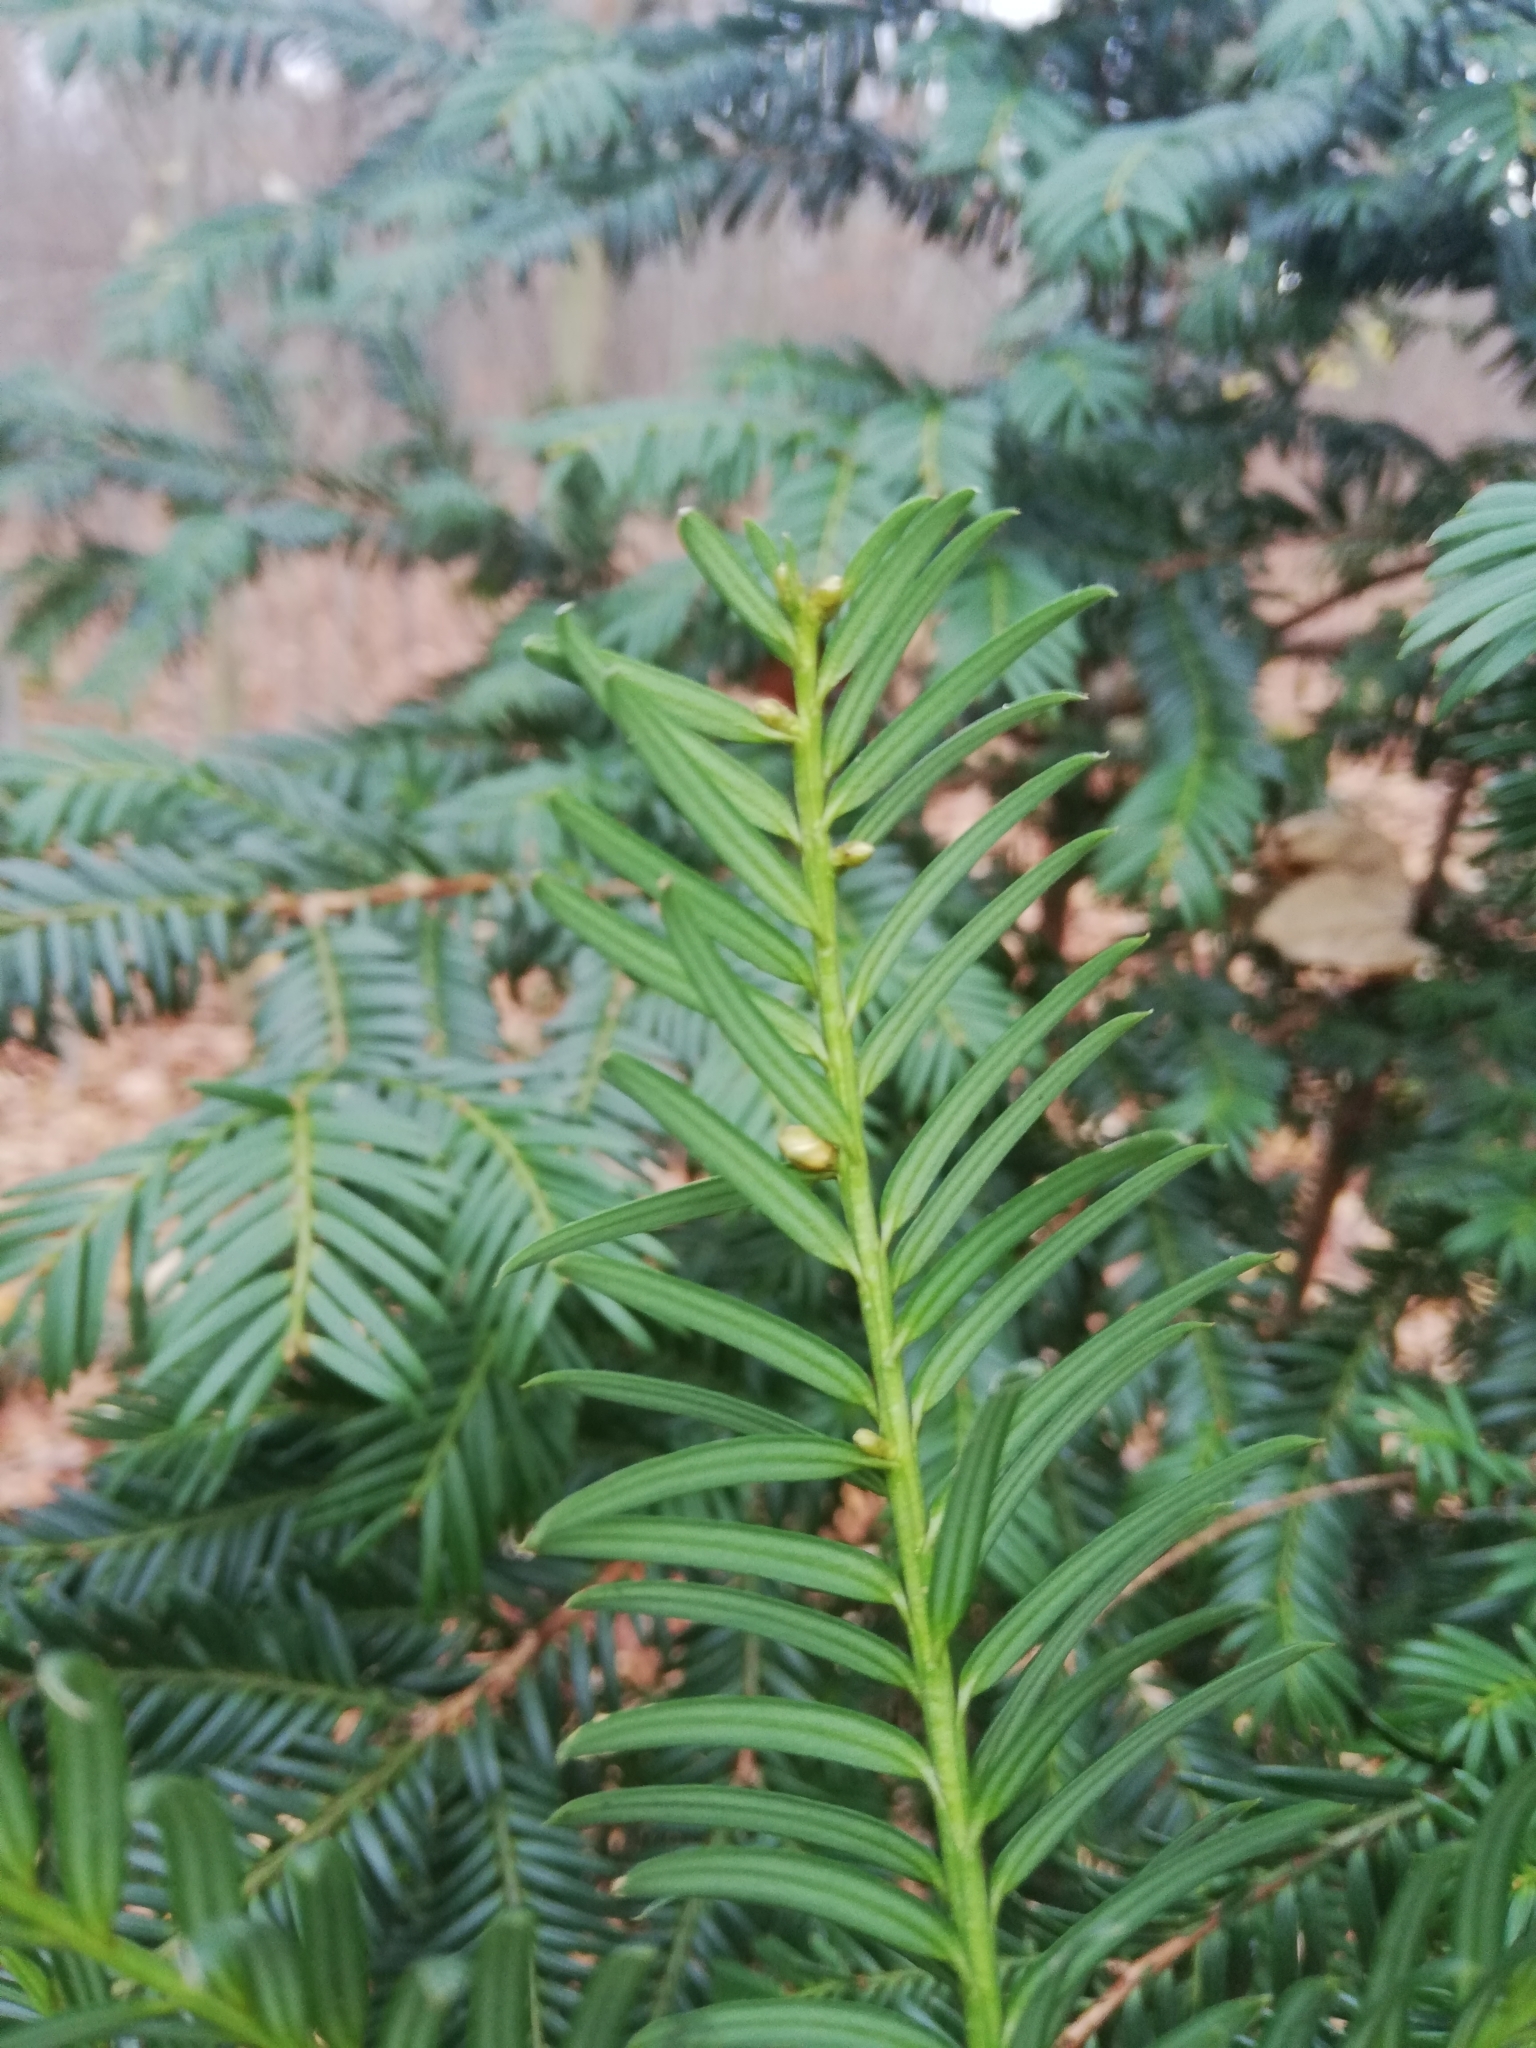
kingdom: Plantae
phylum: Tracheophyta
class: Pinopsida
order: Pinales
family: Taxaceae
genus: Taxus
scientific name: Taxus baccata
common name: Yew
